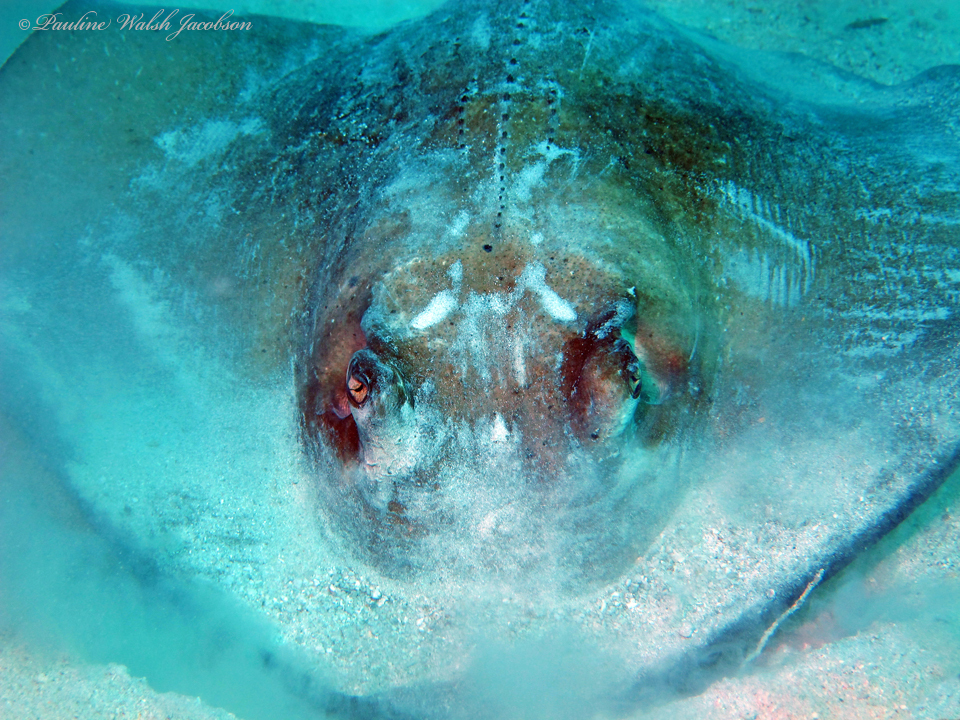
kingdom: Animalia
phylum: Chordata
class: Elasmobranchii
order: Myliobatiformes
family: Dasyatidae
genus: Hypanus
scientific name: Hypanus americanus
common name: Southern stingray
